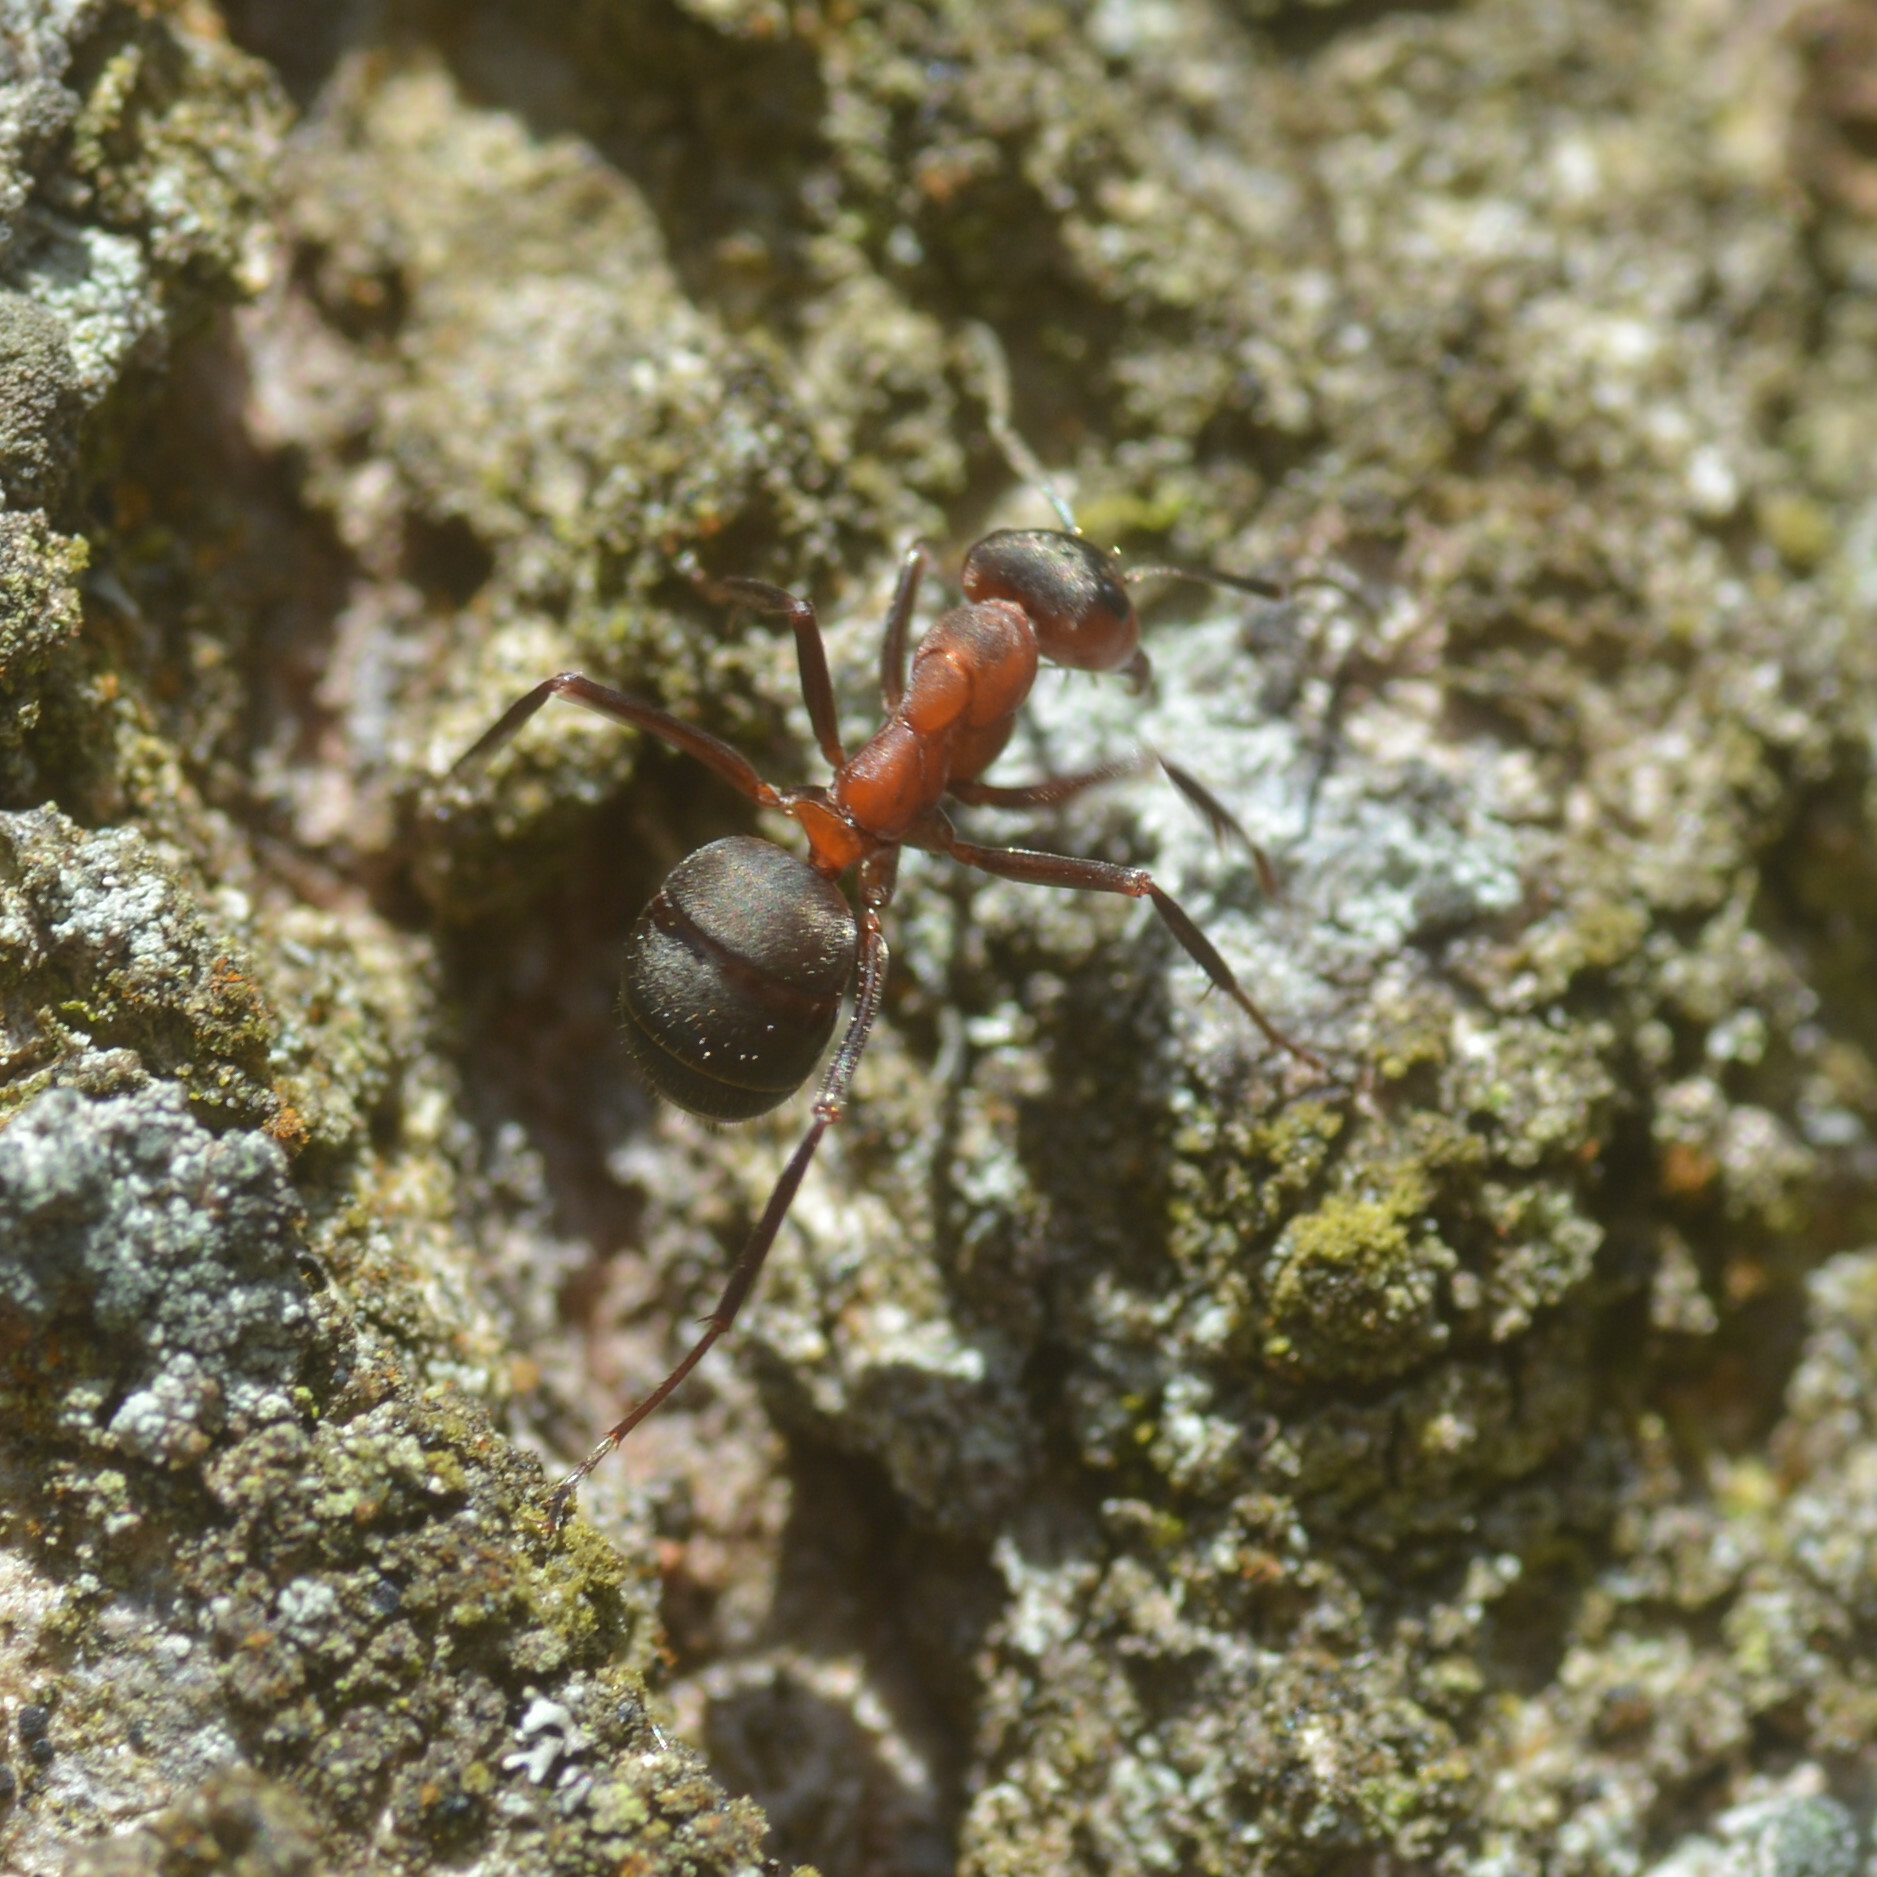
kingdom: Animalia
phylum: Arthropoda
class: Insecta
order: Hymenoptera
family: Formicidae
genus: Formica
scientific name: Formica
